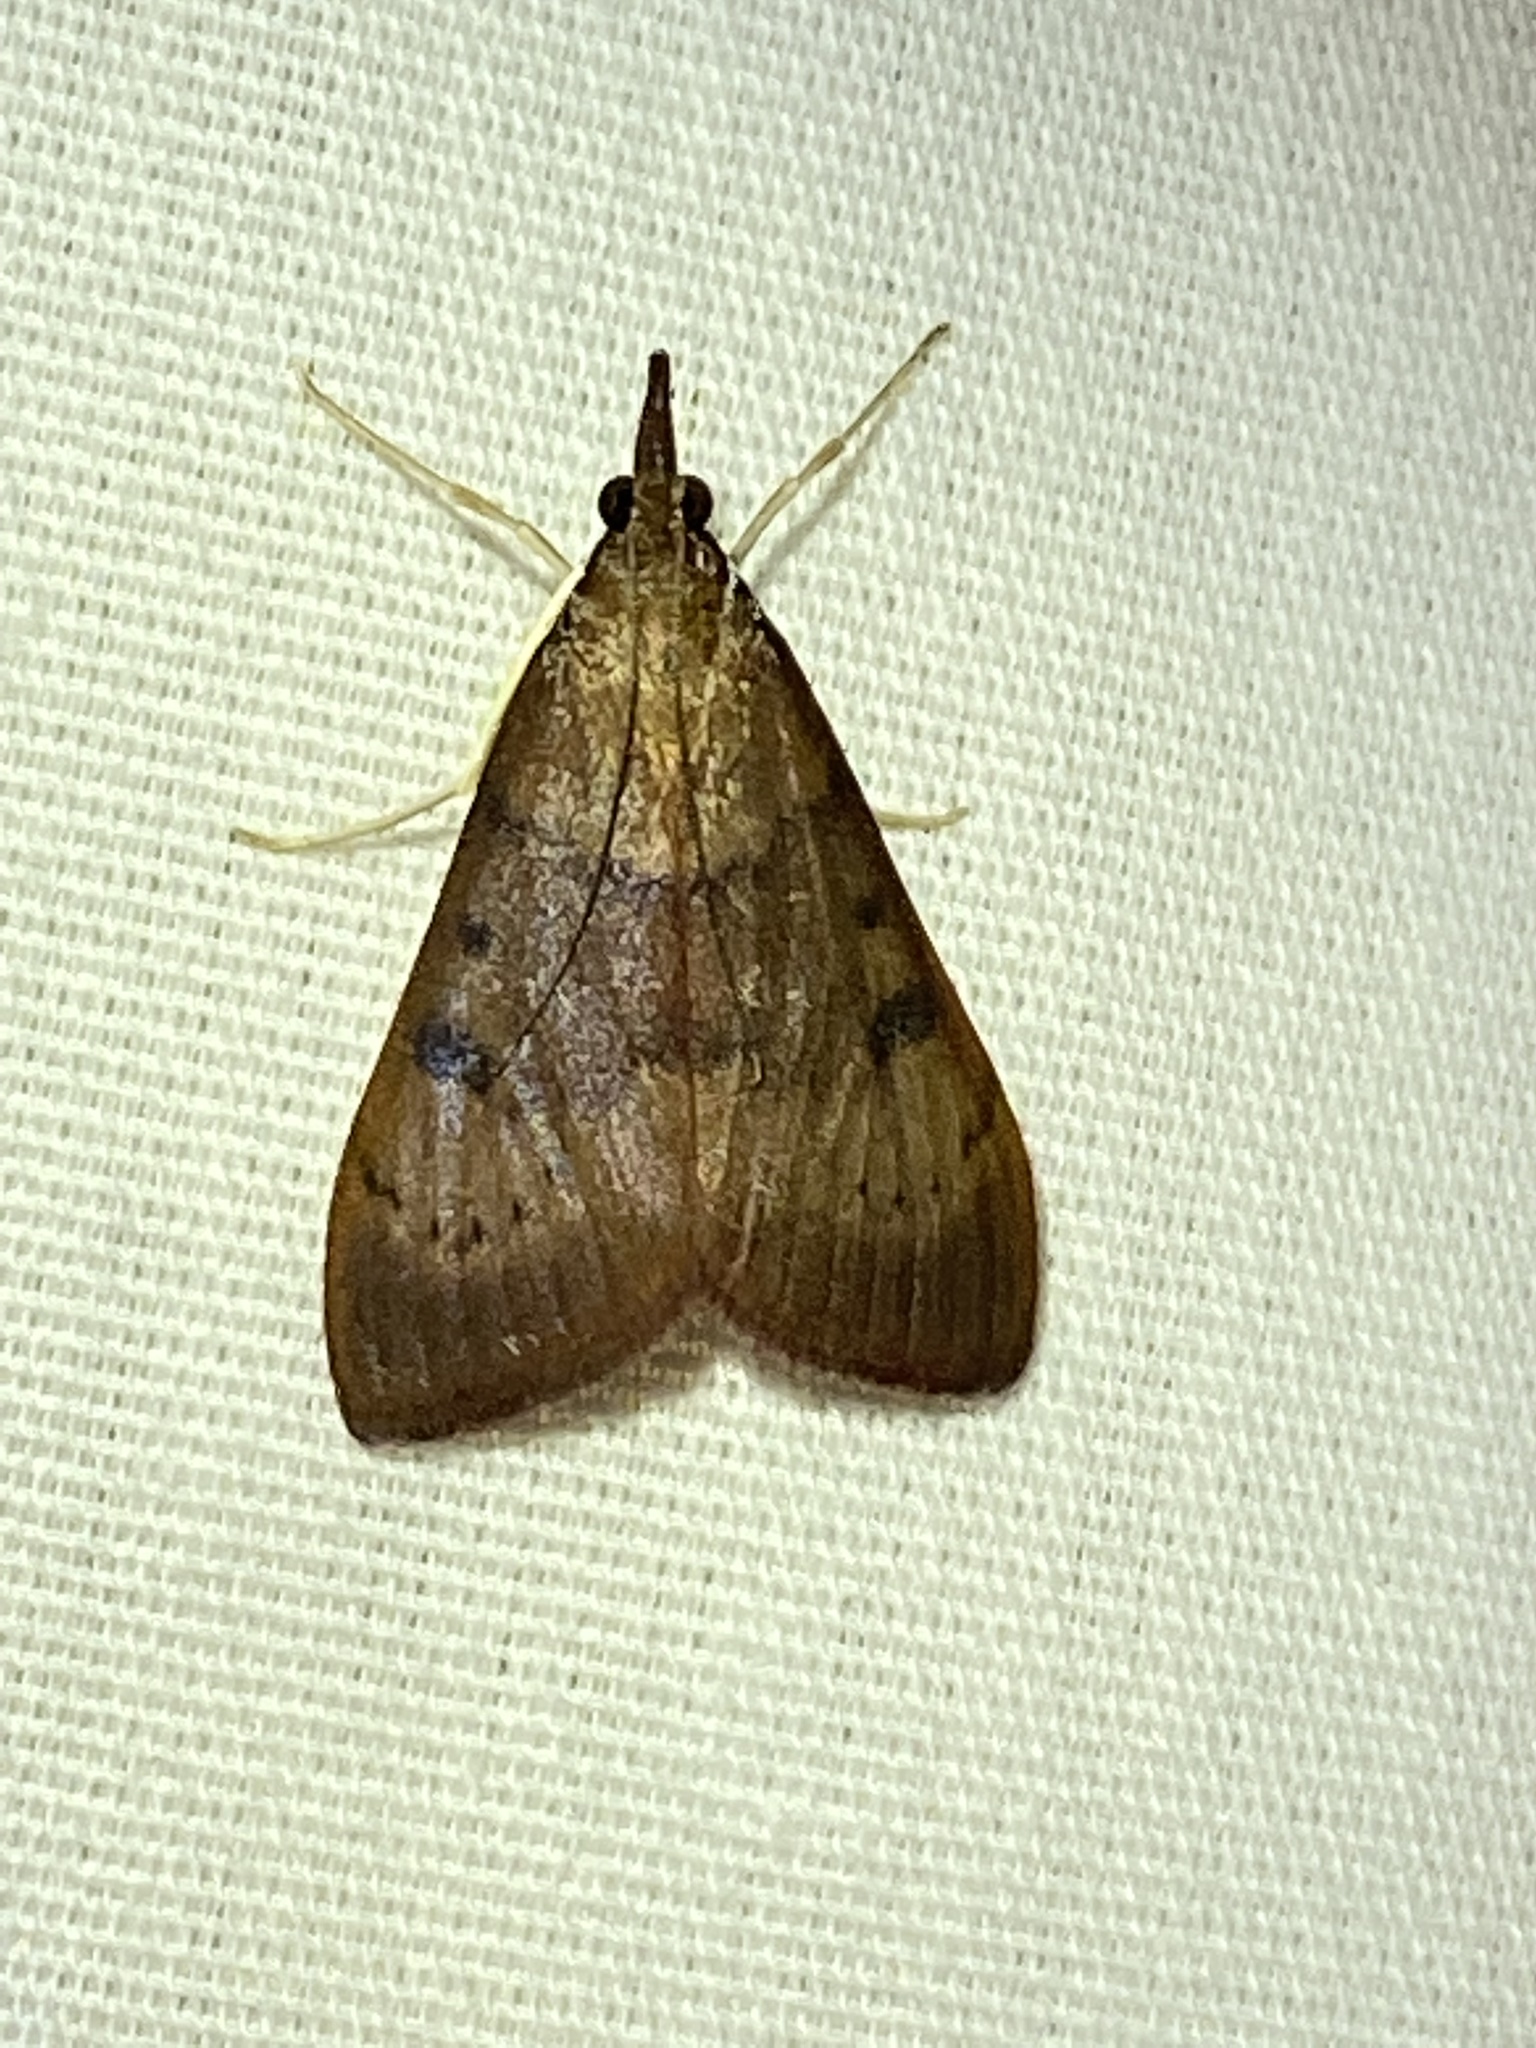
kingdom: Animalia
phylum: Arthropoda
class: Insecta
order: Lepidoptera
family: Crambidae
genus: Uresiphita
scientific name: Uresiphita reversalis
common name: Genista broom moth
